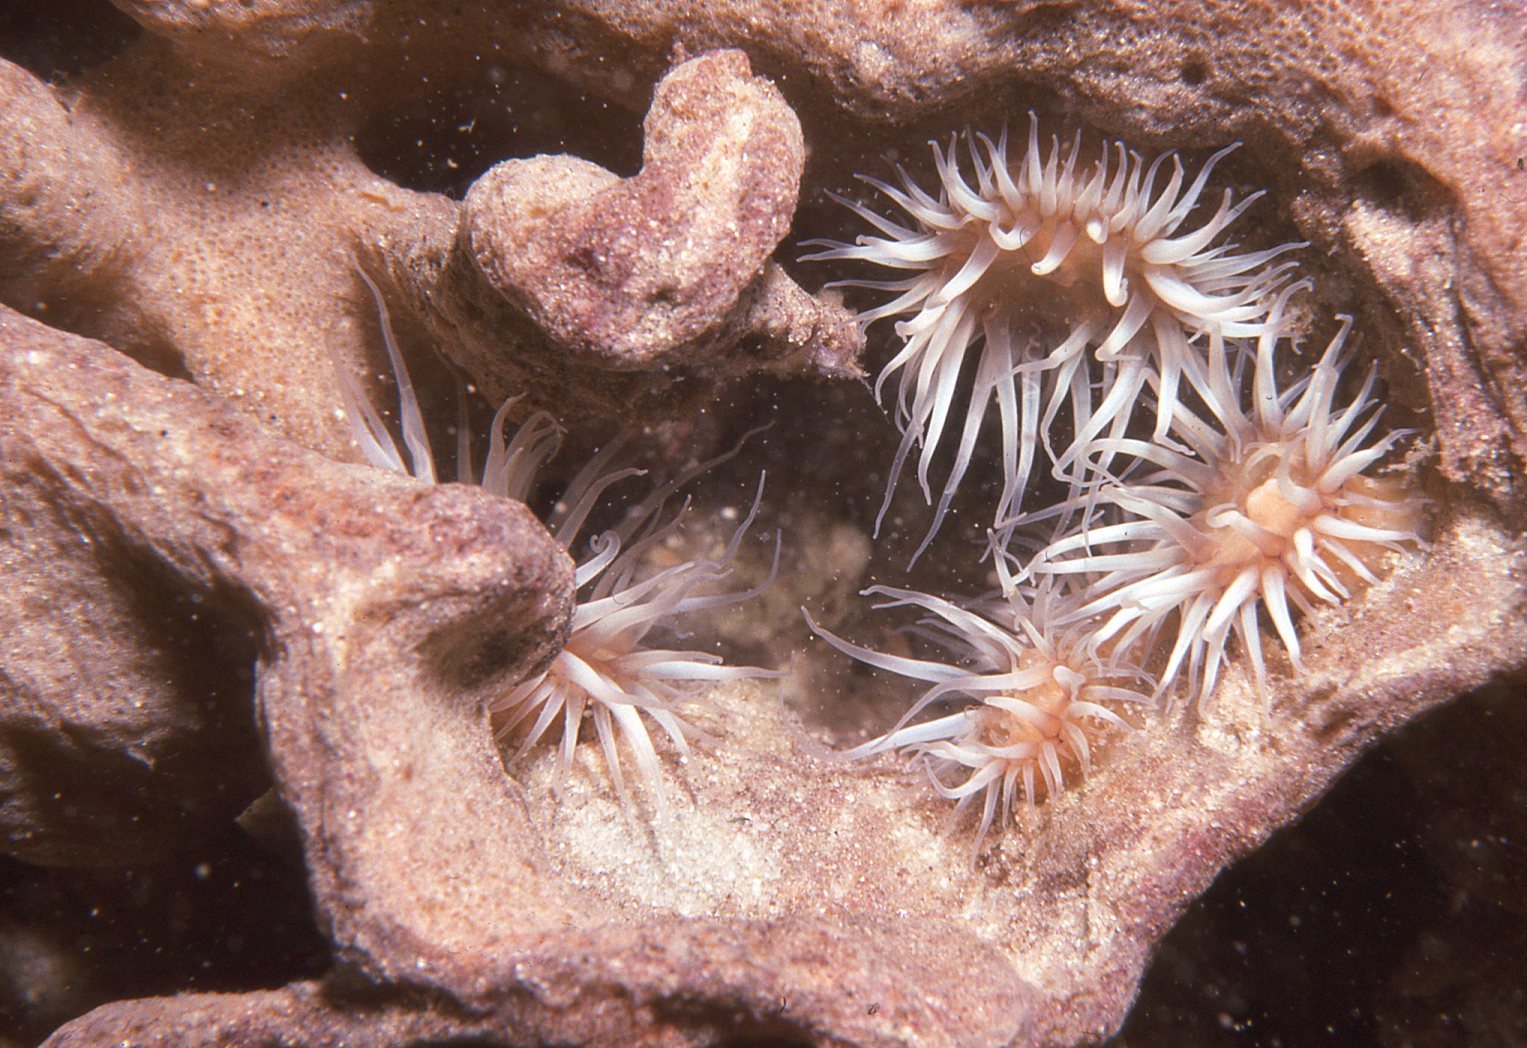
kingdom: Animalia
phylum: Cnidaria
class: Anthozoa
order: Actiniaria
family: Sagartiidae
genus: Anthothoe
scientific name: Anthothoe albocincta
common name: Orange striped anemone
